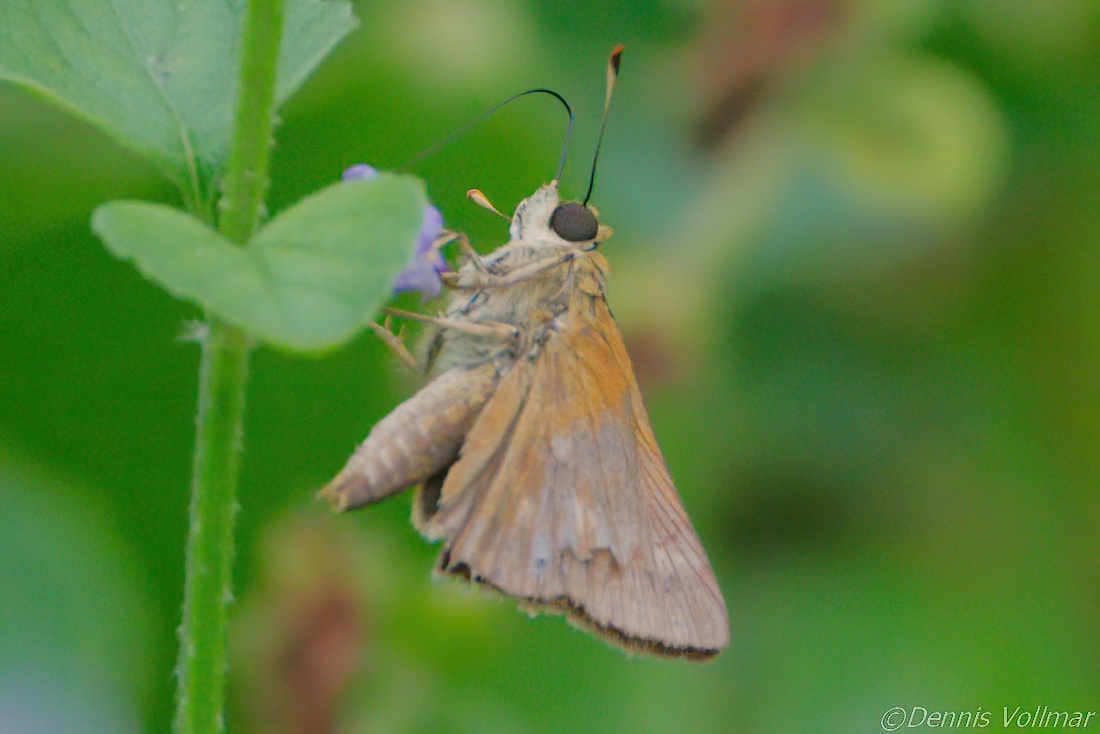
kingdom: Animalia
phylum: Arthropoda
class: Insecta
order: Lepidoptera
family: Hesperiidae
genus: Polites
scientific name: Polites otho
